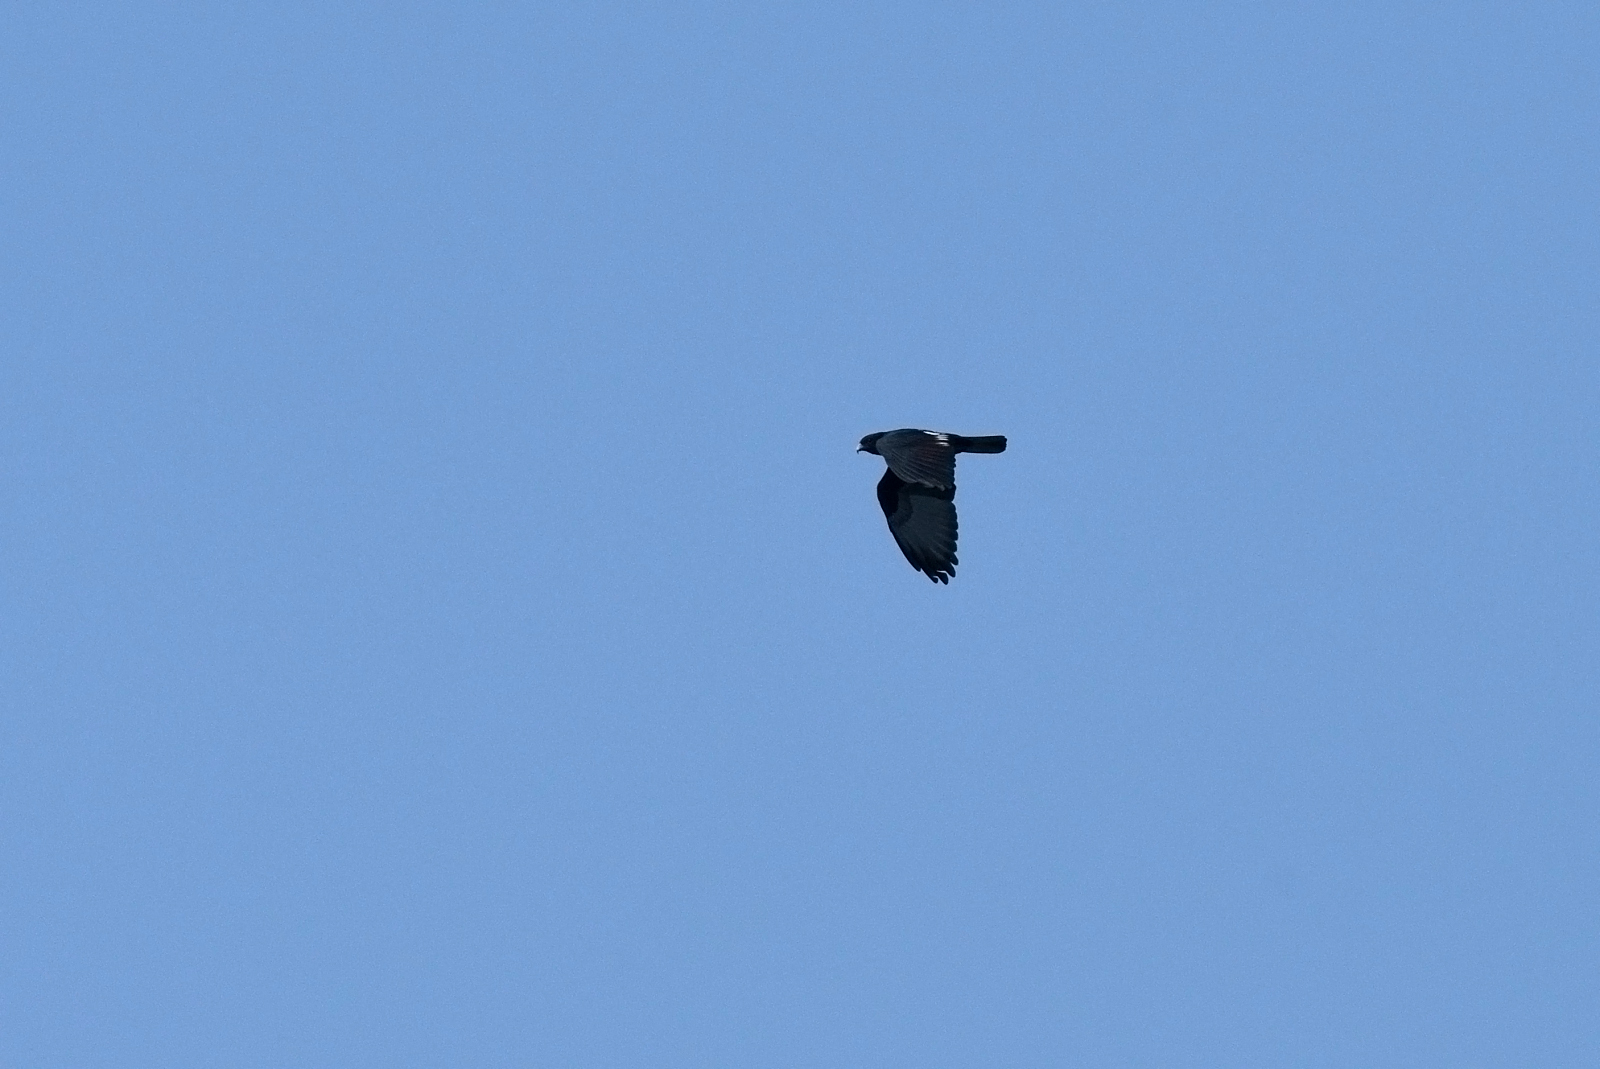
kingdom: Animalia
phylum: Chordata
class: Aves
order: Accipitriformes
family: Accipitridae
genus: Aviceda
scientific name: Aviceda leuphotes
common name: Black baza
